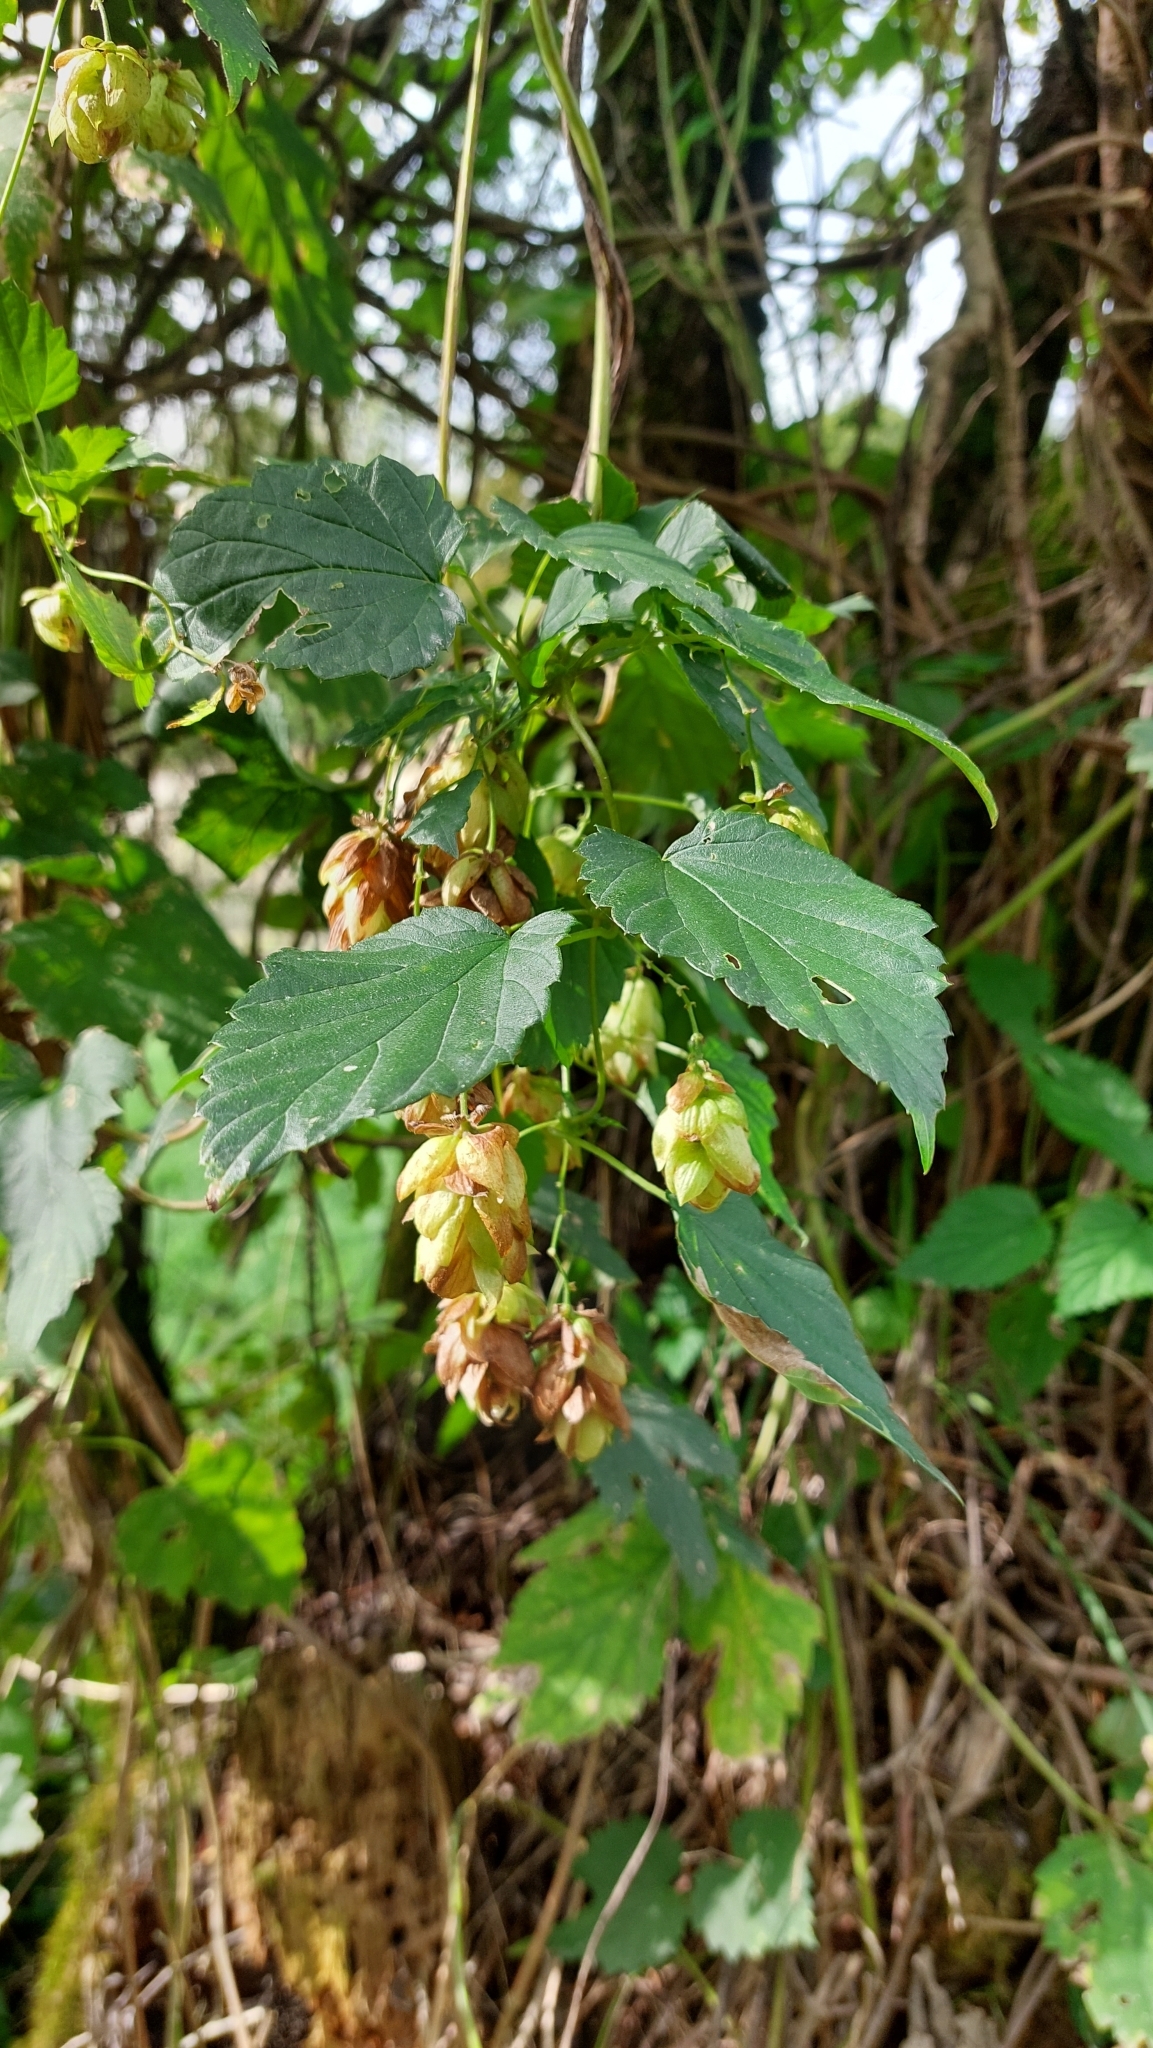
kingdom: Plantae
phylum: Tracheophyta
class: Magnoliopsida
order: Rosales
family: Cannabaceae
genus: Humulus
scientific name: Humulus lupulus
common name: Hop
